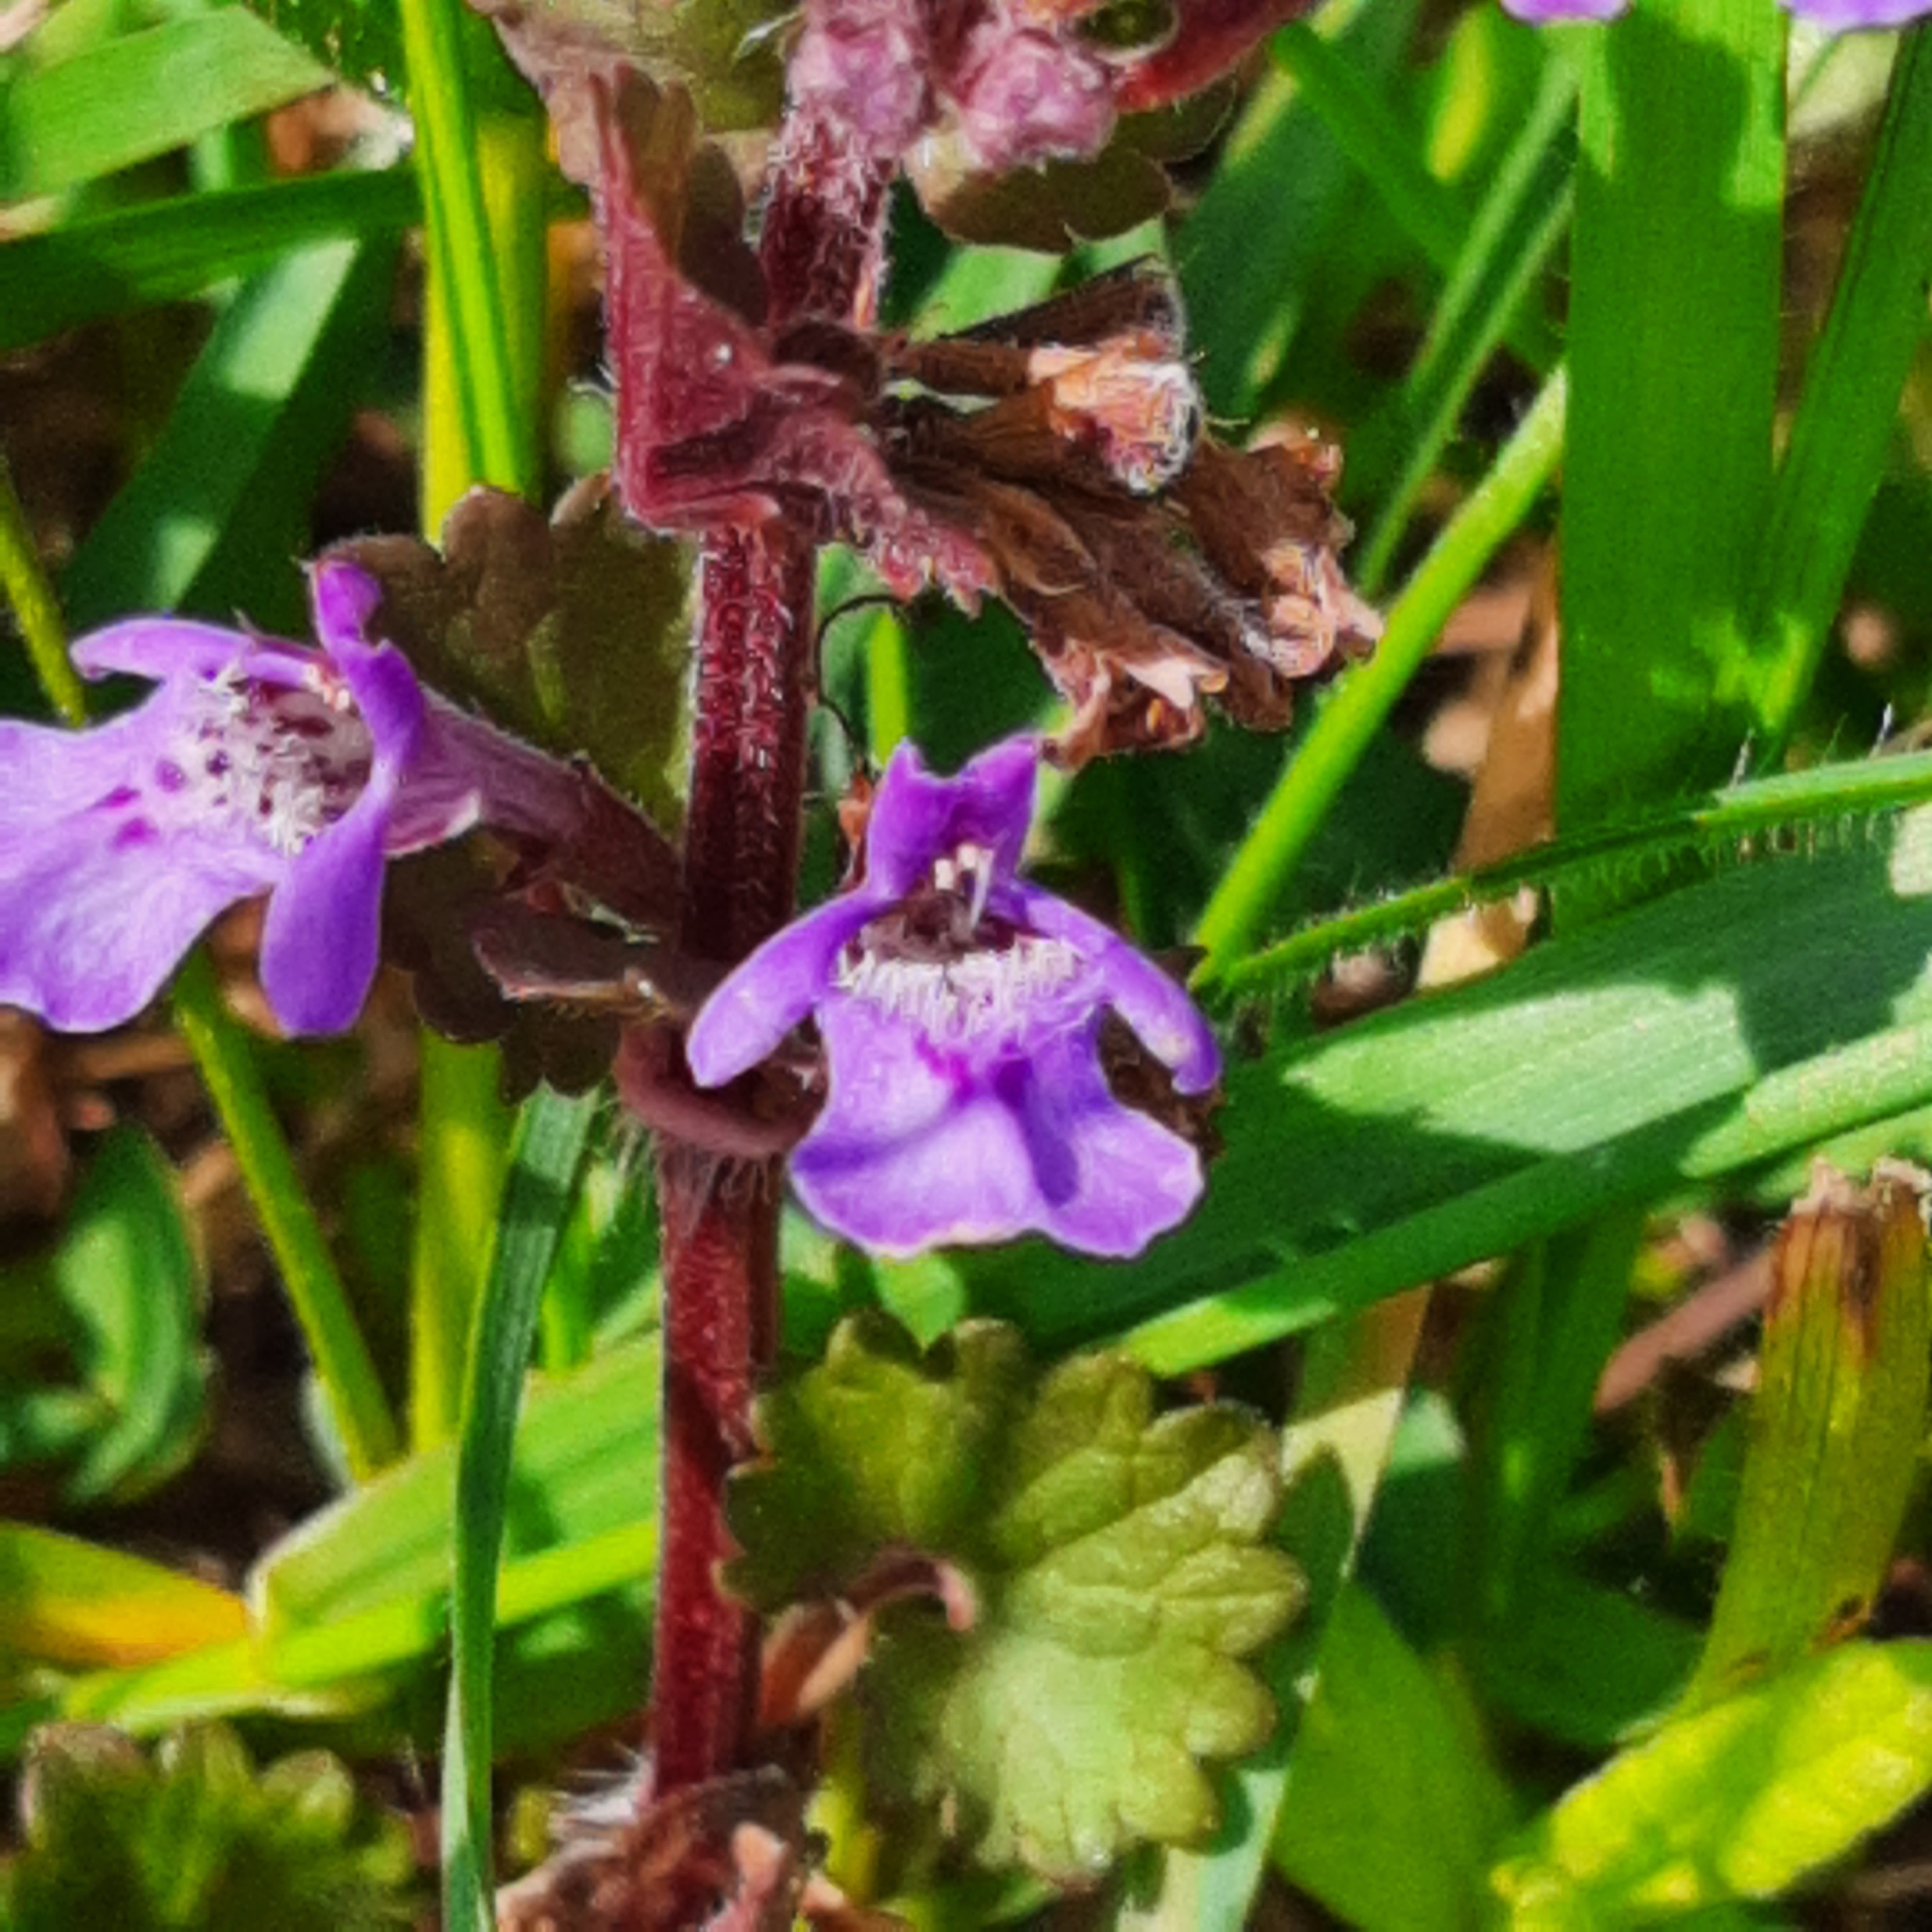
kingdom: Plantae
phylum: Tracheophyta
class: Magnoliopsida
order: Lamiales
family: Lamiaceae
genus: Glechoma
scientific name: Glechoma hederacea
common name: Ground ivy
